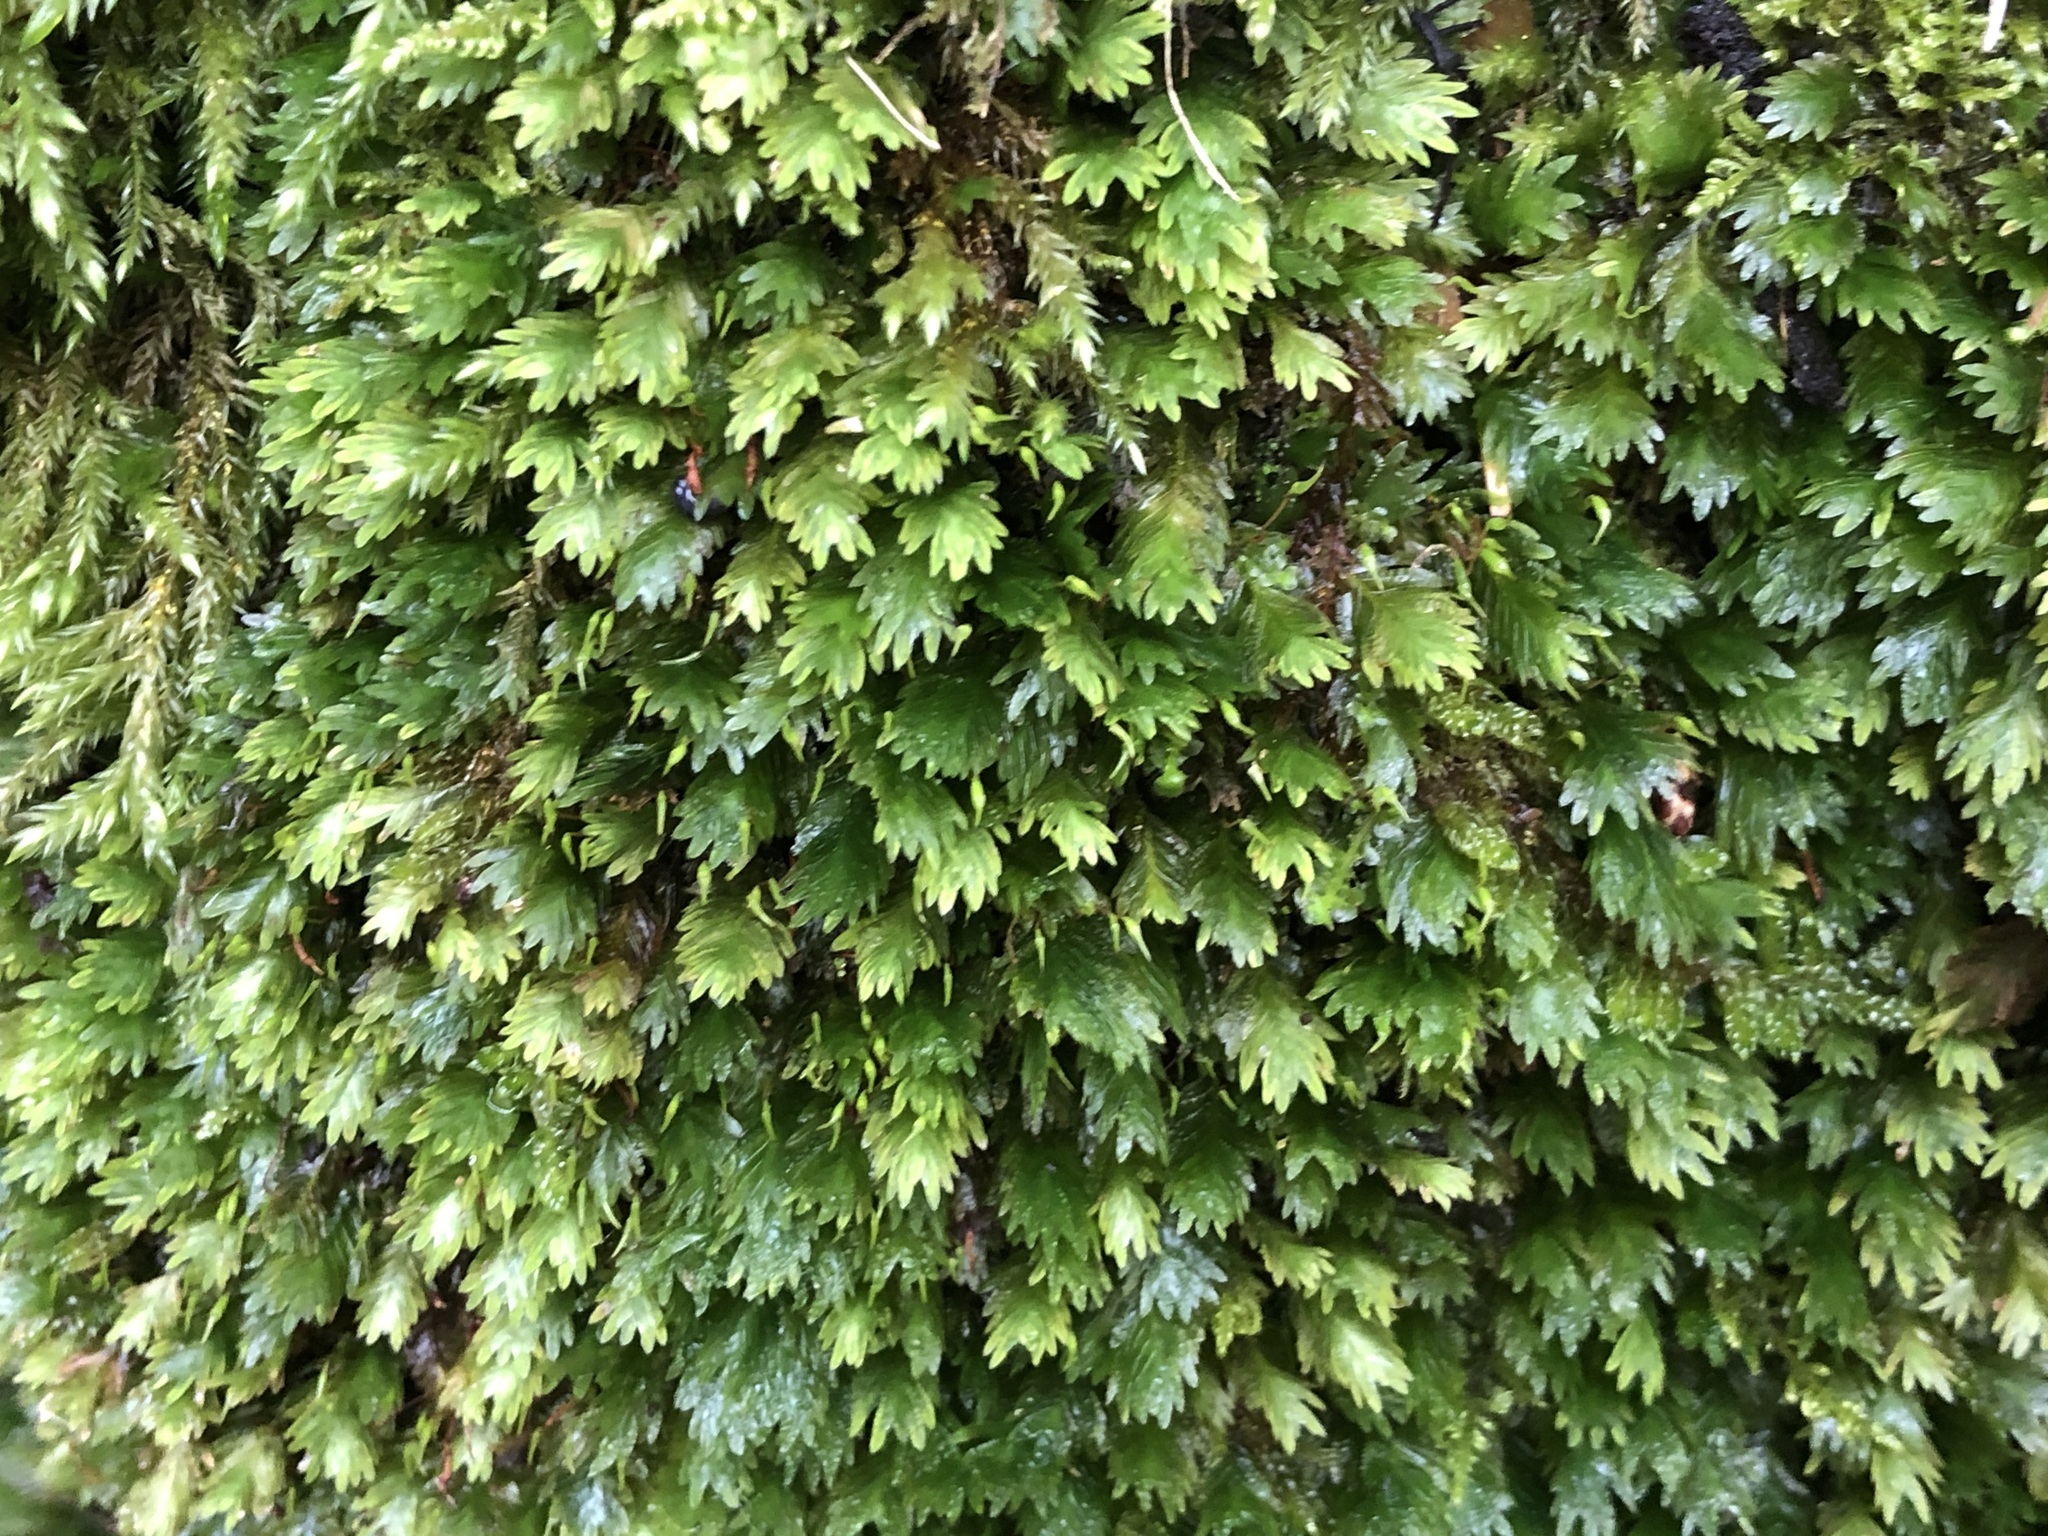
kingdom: Plantae
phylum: Bryophyta
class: Bryopsida
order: Dicranales
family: Fissidentaceae
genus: Fissidens
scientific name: Fissidens dubius
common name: Rock pocket moss
